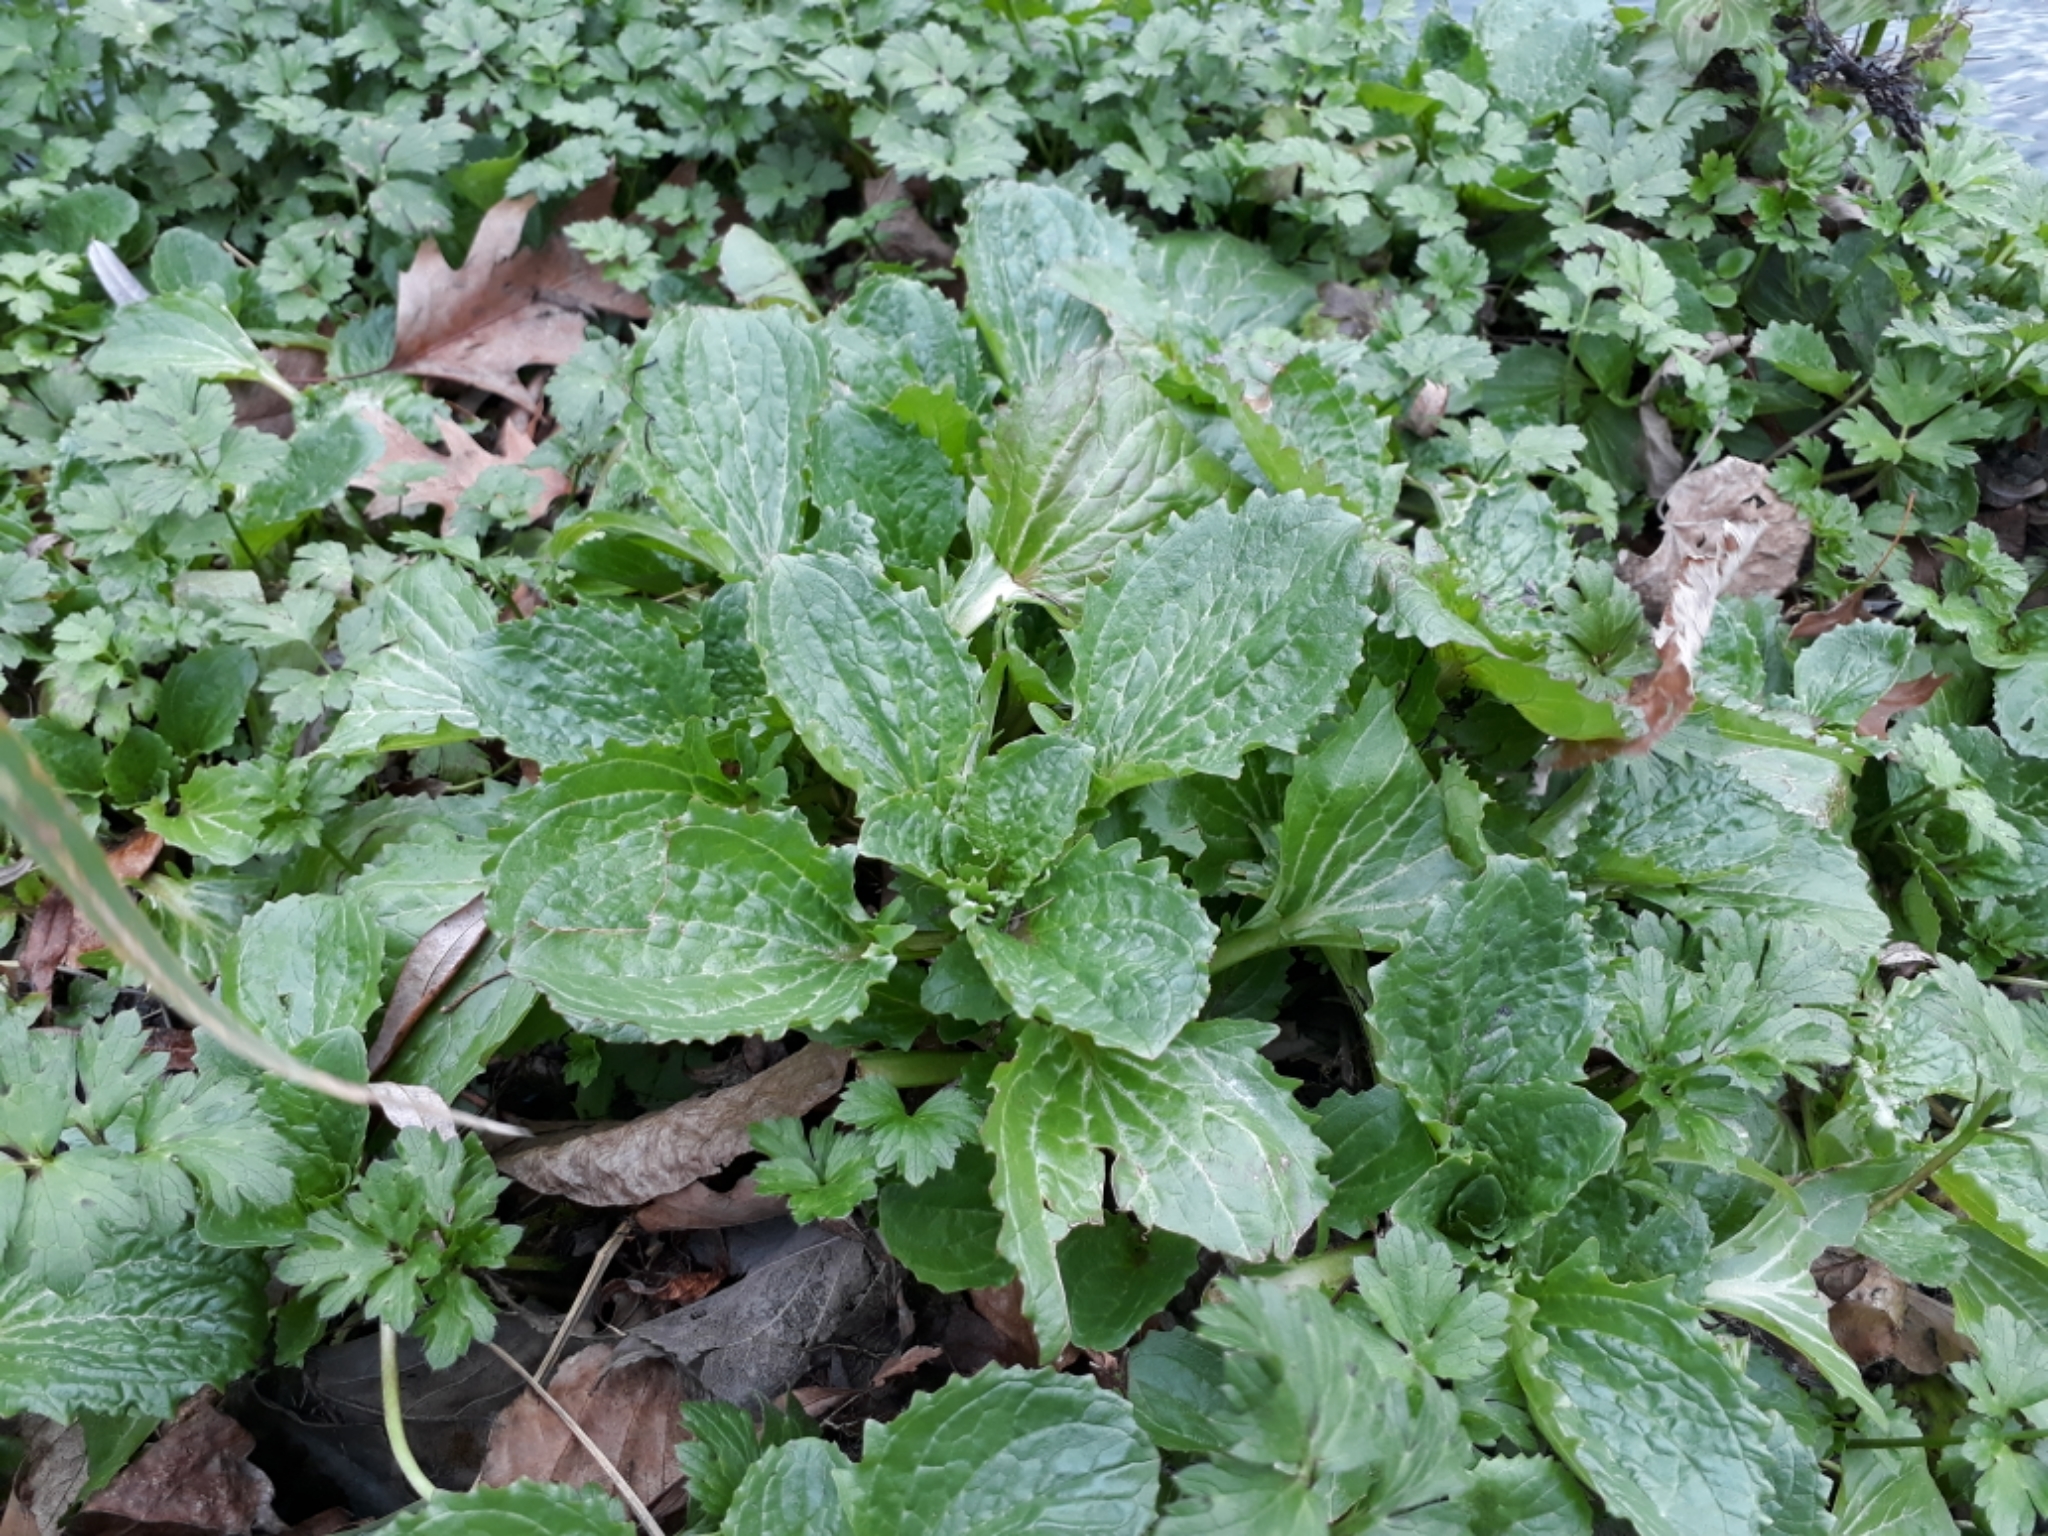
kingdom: Plantae
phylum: Tracheophyta
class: Magnoliopsida
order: Lamiales
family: Phrymaceae
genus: Erythranthe
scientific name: Erythranthe guttata
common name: Monkeyflower
